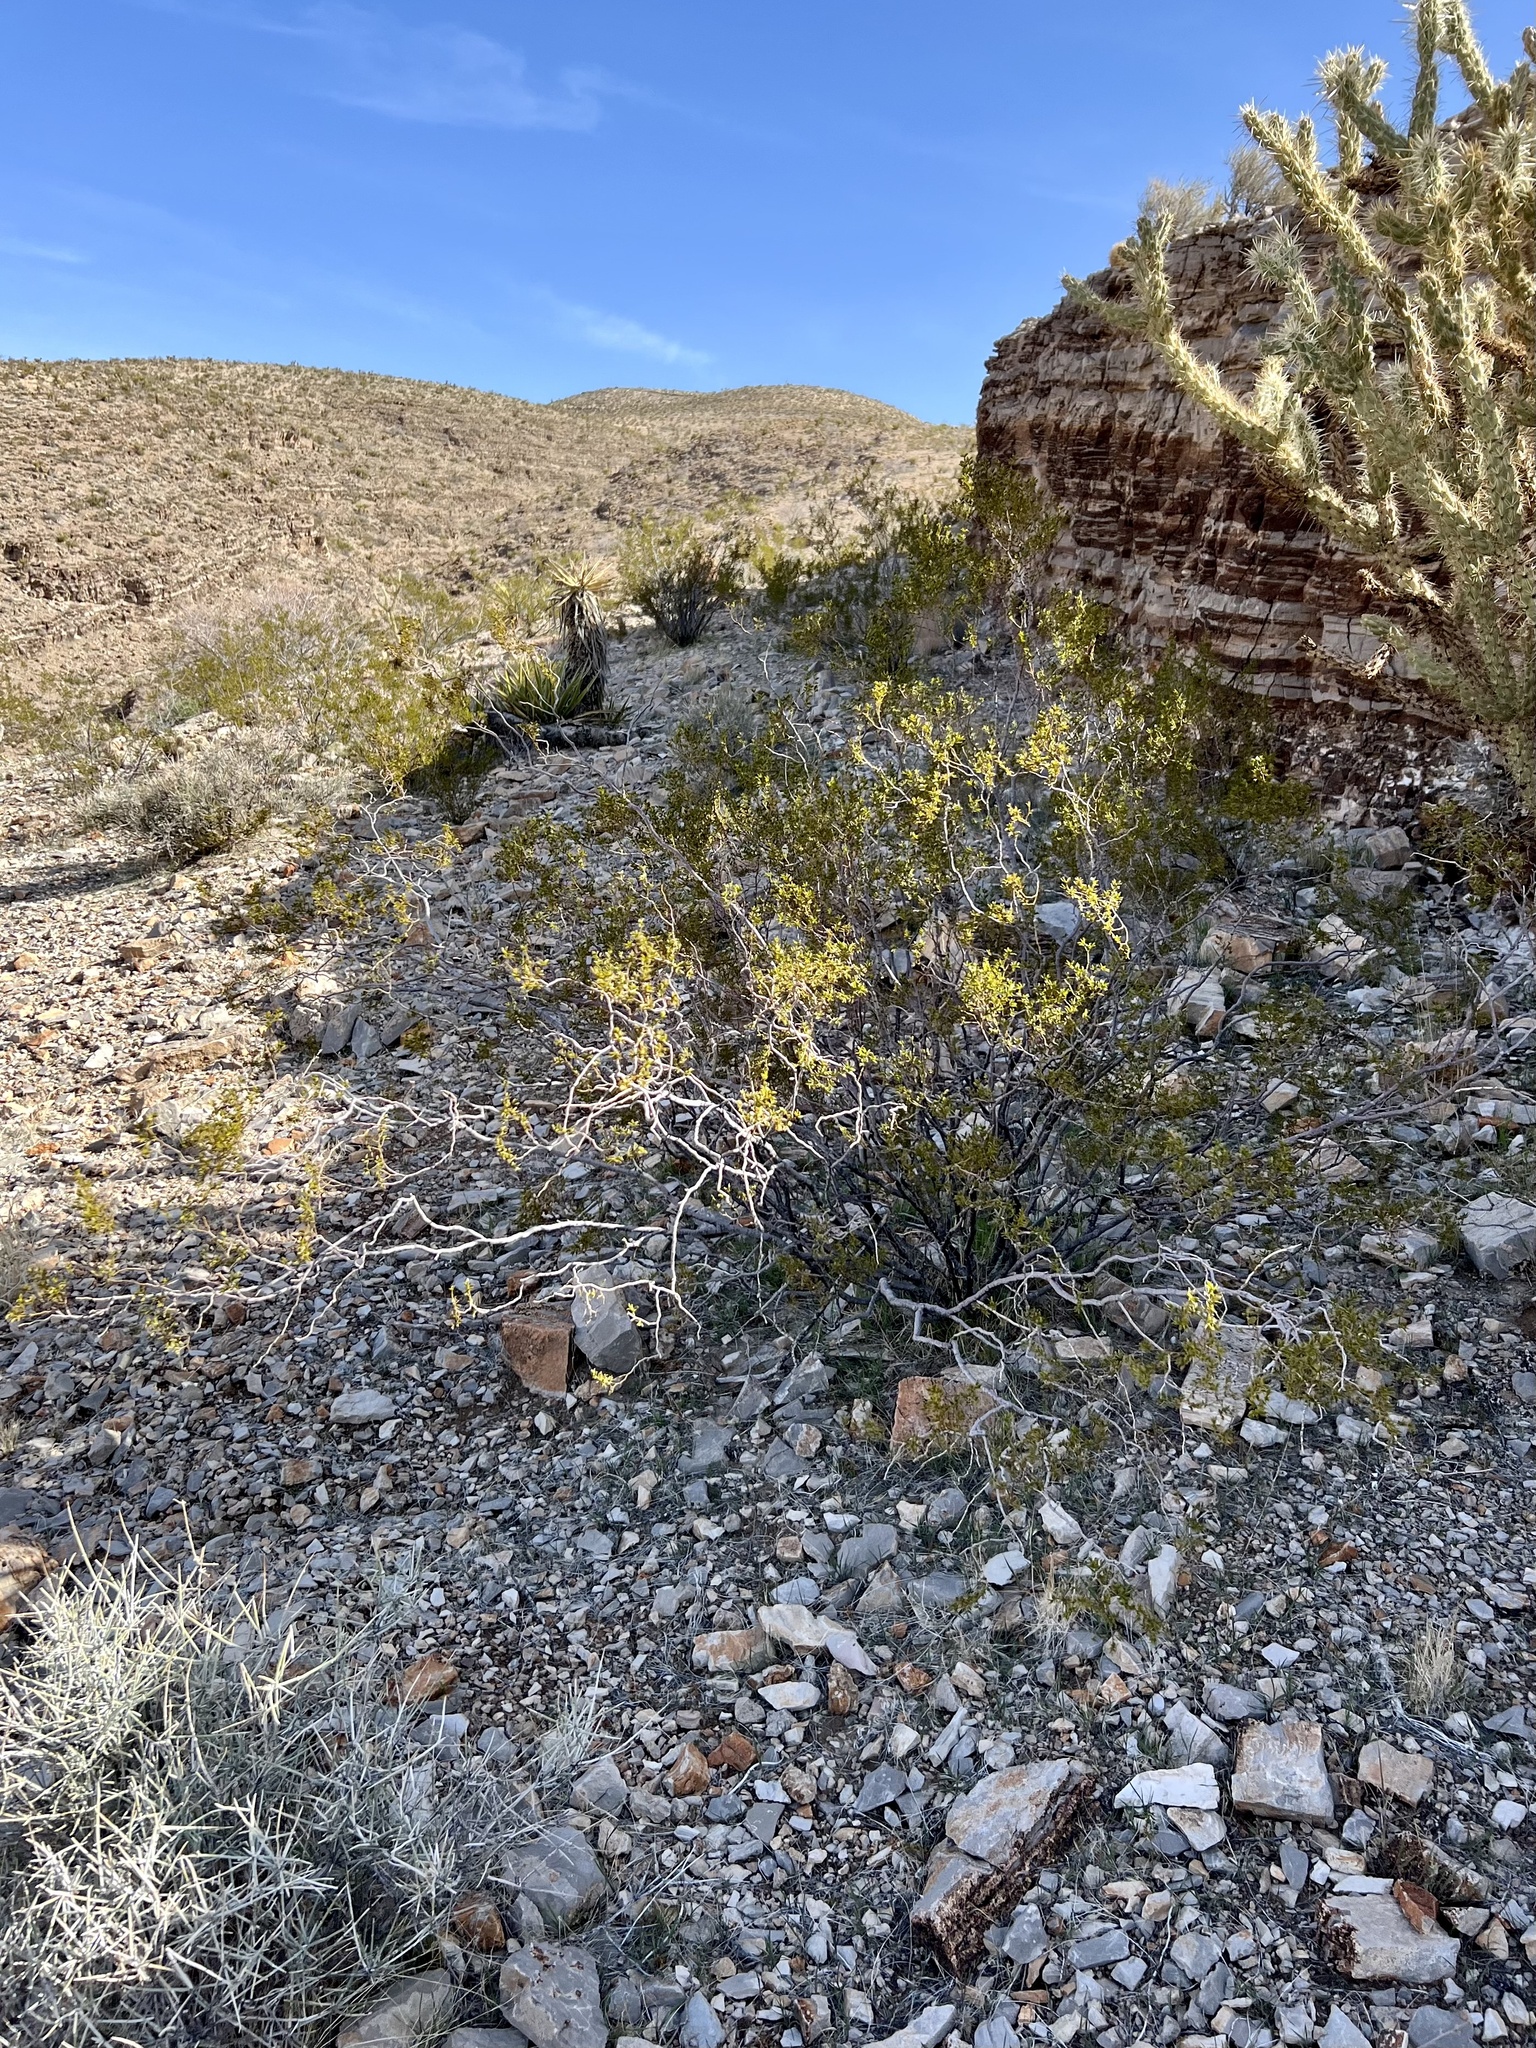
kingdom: Plantae
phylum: Tracheophyta
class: Magnoliopsida
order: Zygophyllales
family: Zygophyllaceae
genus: Larrea
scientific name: Larrea tridentata
